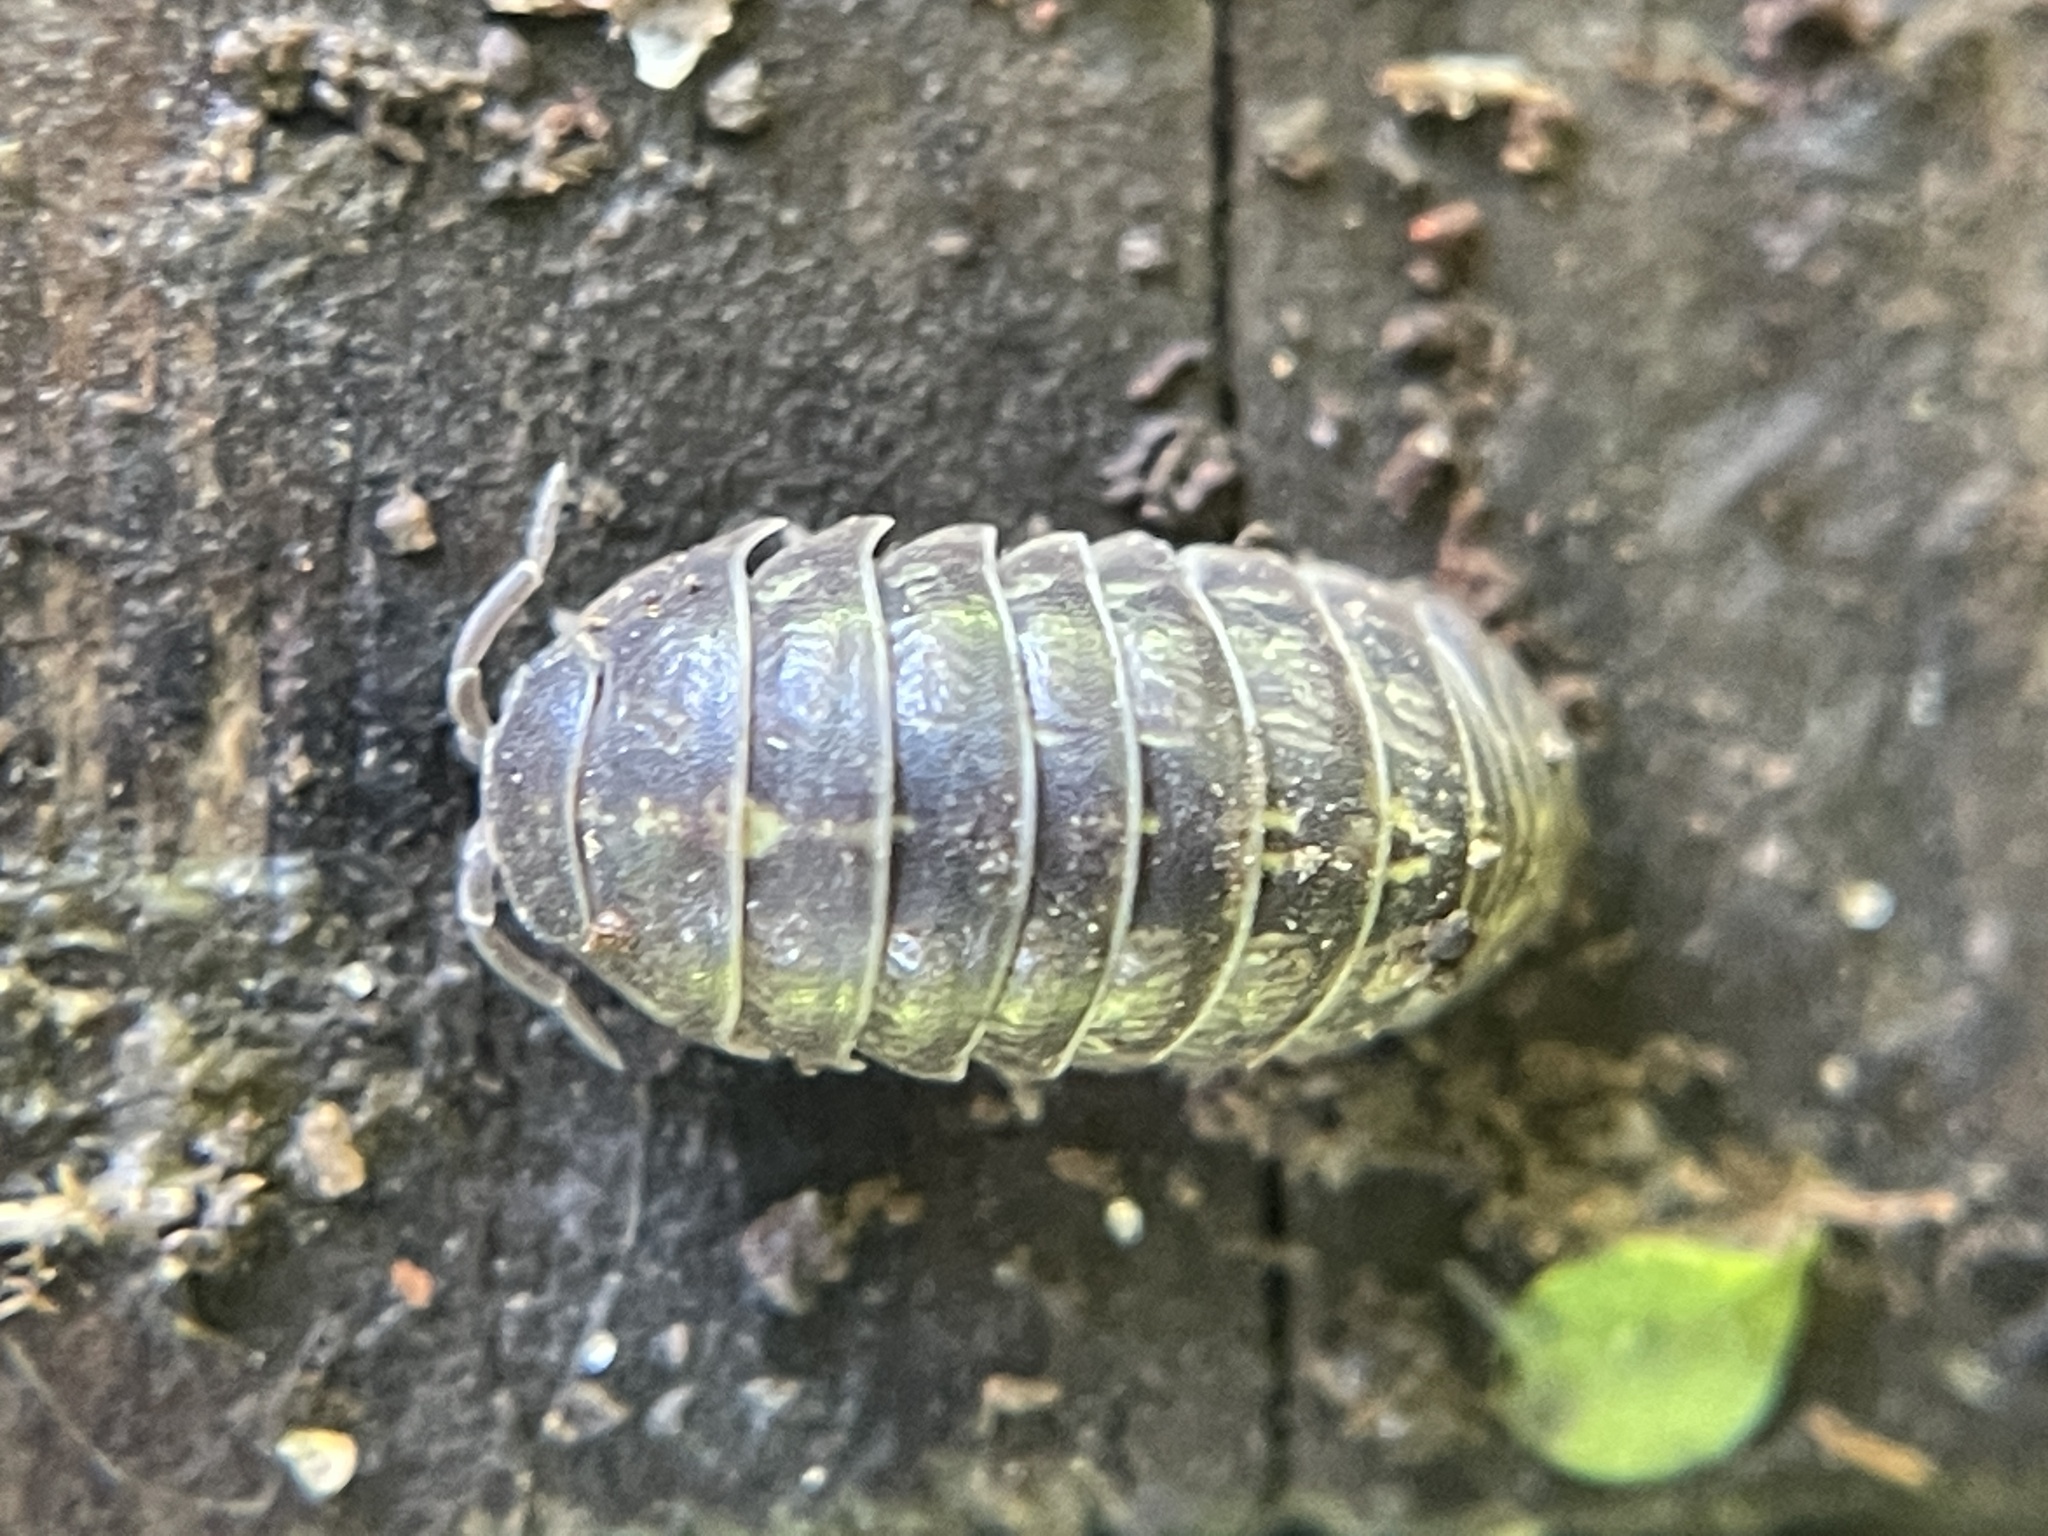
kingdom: Animalia
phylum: Arthropoda
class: Malacostraca
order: Isopoda
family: Armadillidiidae
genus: Armadillidium
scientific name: Armadillidium vulgare
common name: Common pill woodlouse
